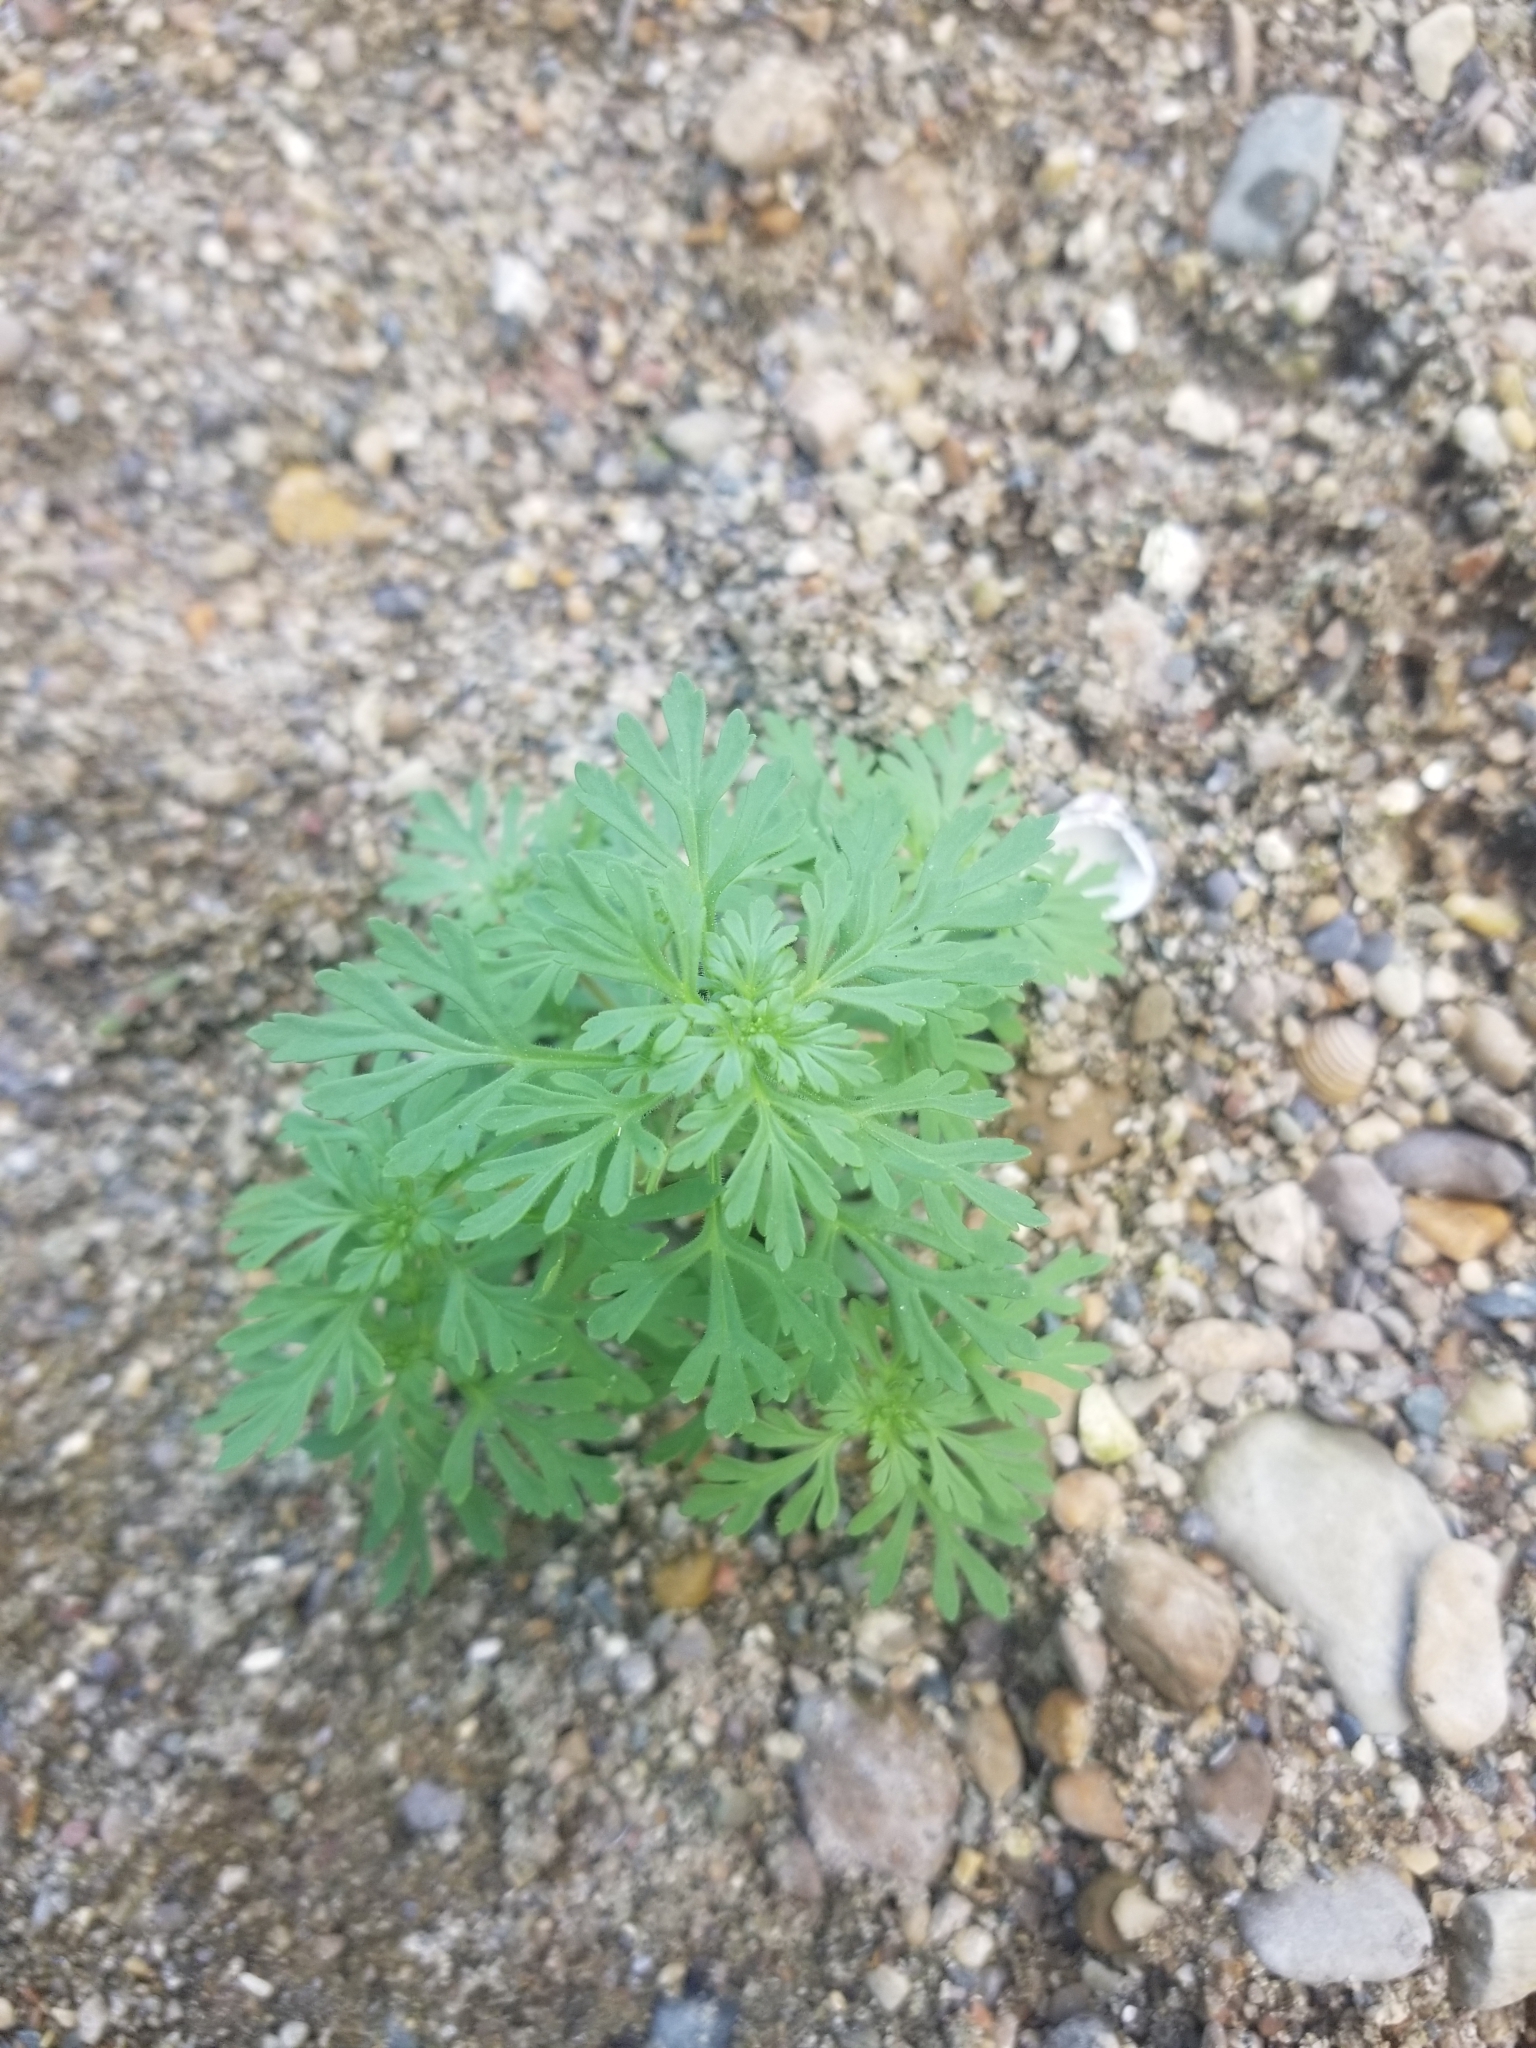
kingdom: Plantae
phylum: Tracheophyta
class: Magnoliopsida
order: Lamiales
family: Plantaginaceae
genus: Leucospora
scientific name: Leucospora multifida
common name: Narrow-leaf paleseed
